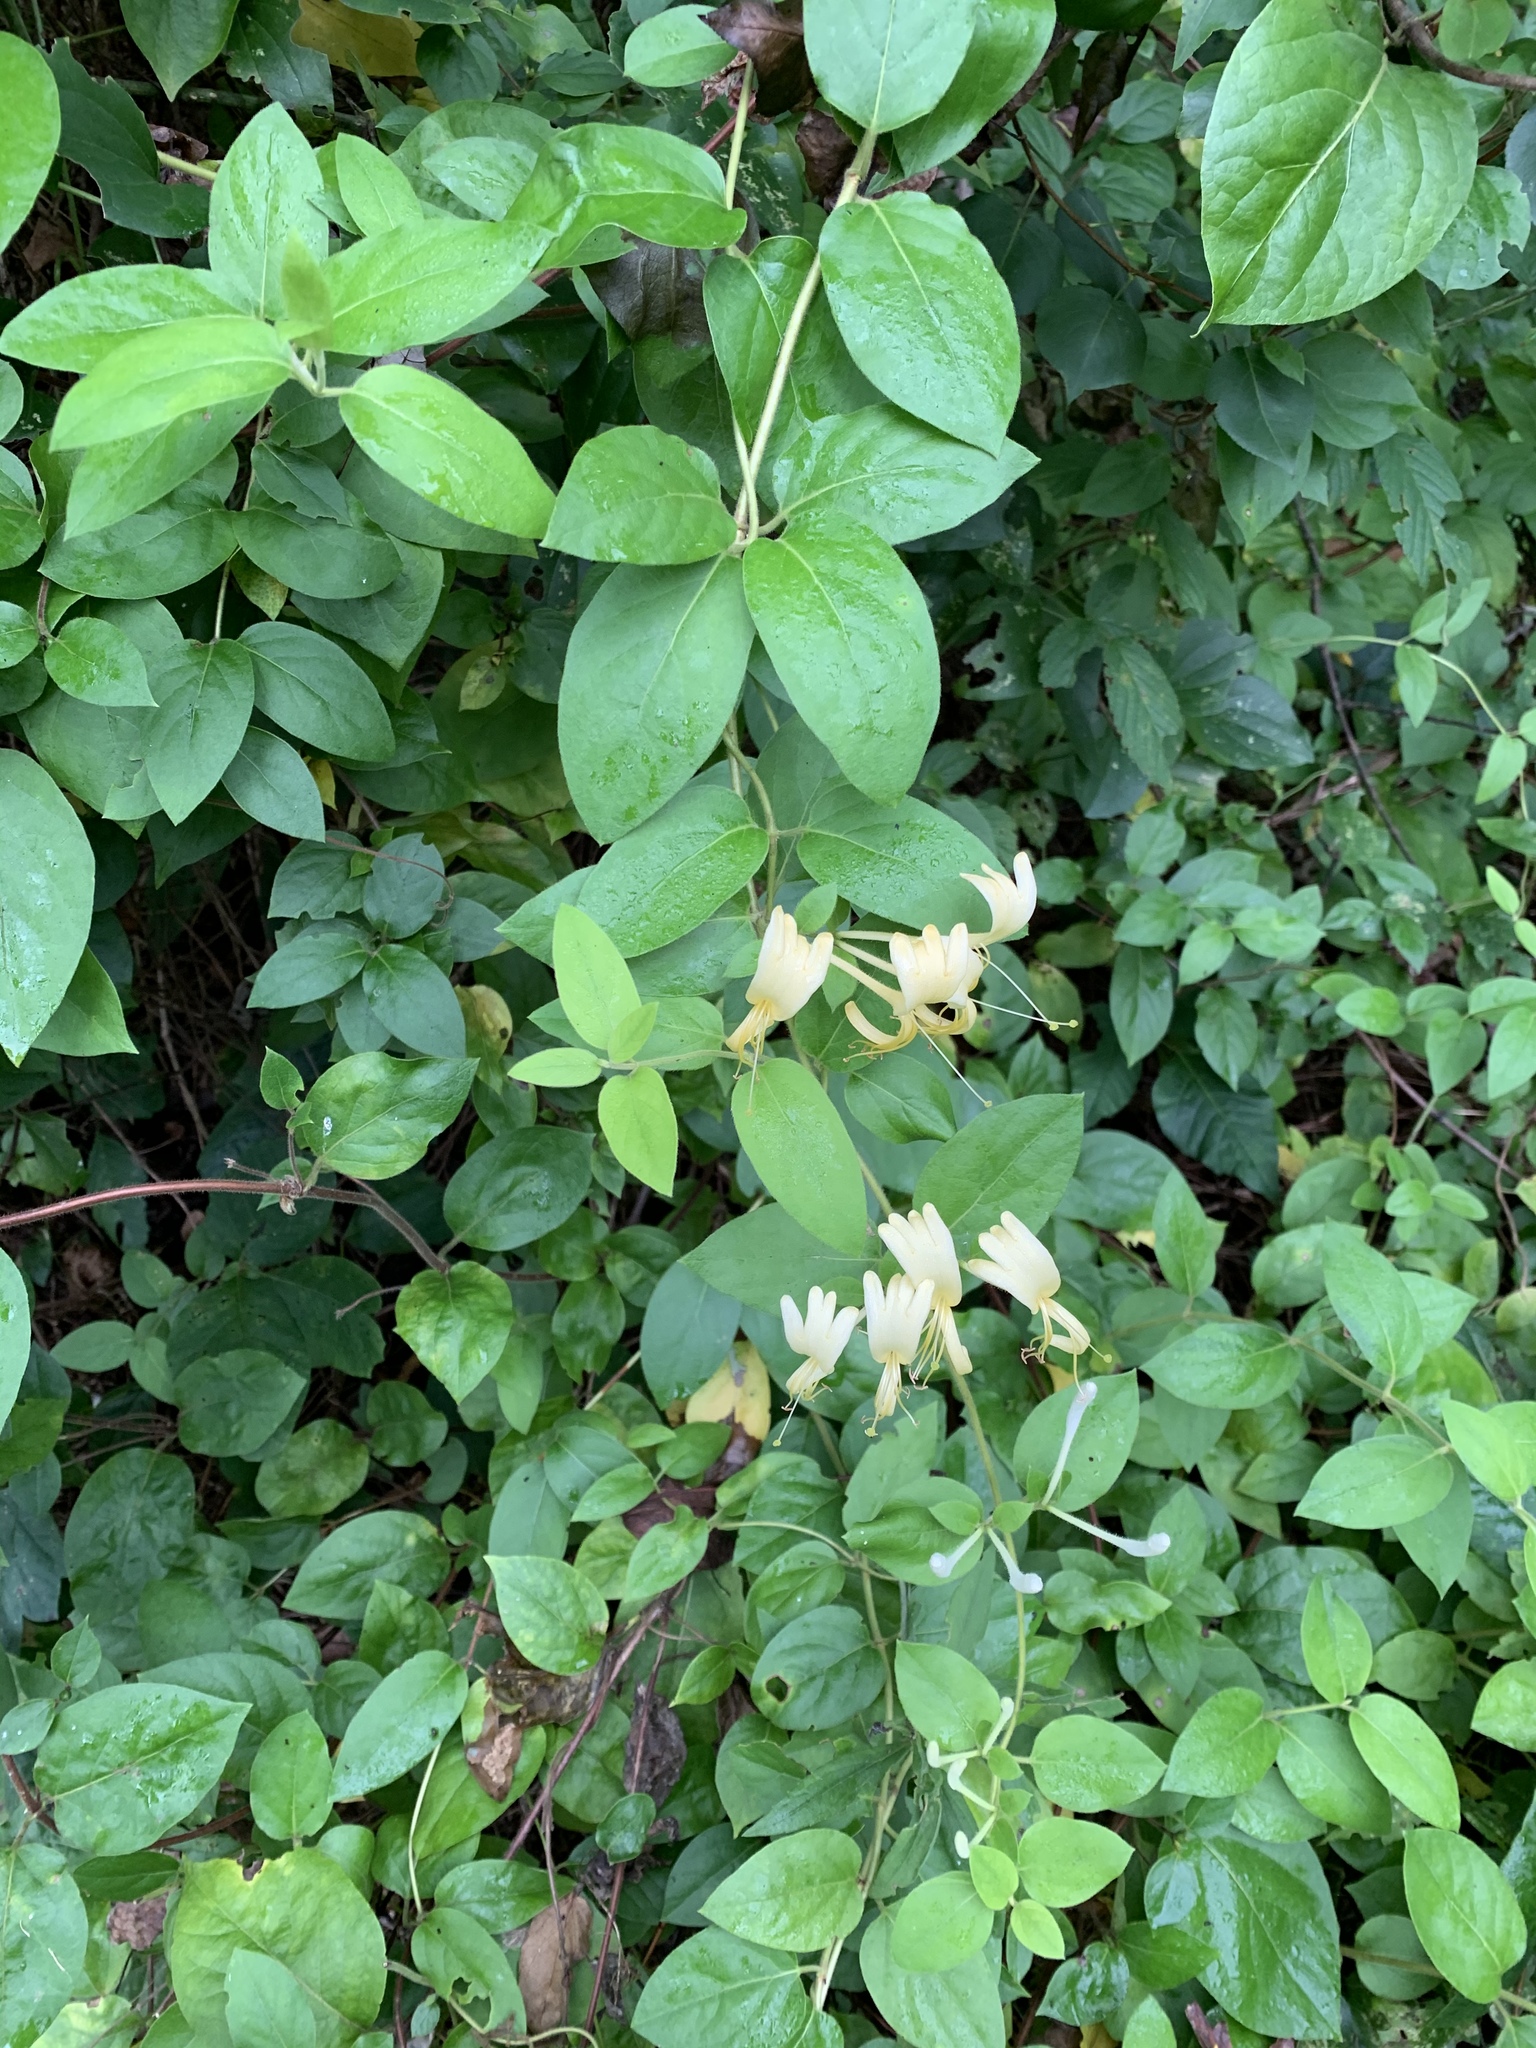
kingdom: Plantae
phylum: Tracheophyta
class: Magnoliopsida
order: Dipsacales
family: Caprifoliaceae
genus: Lonicera
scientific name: Lonicera japonica
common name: Japanese honeysuckle
